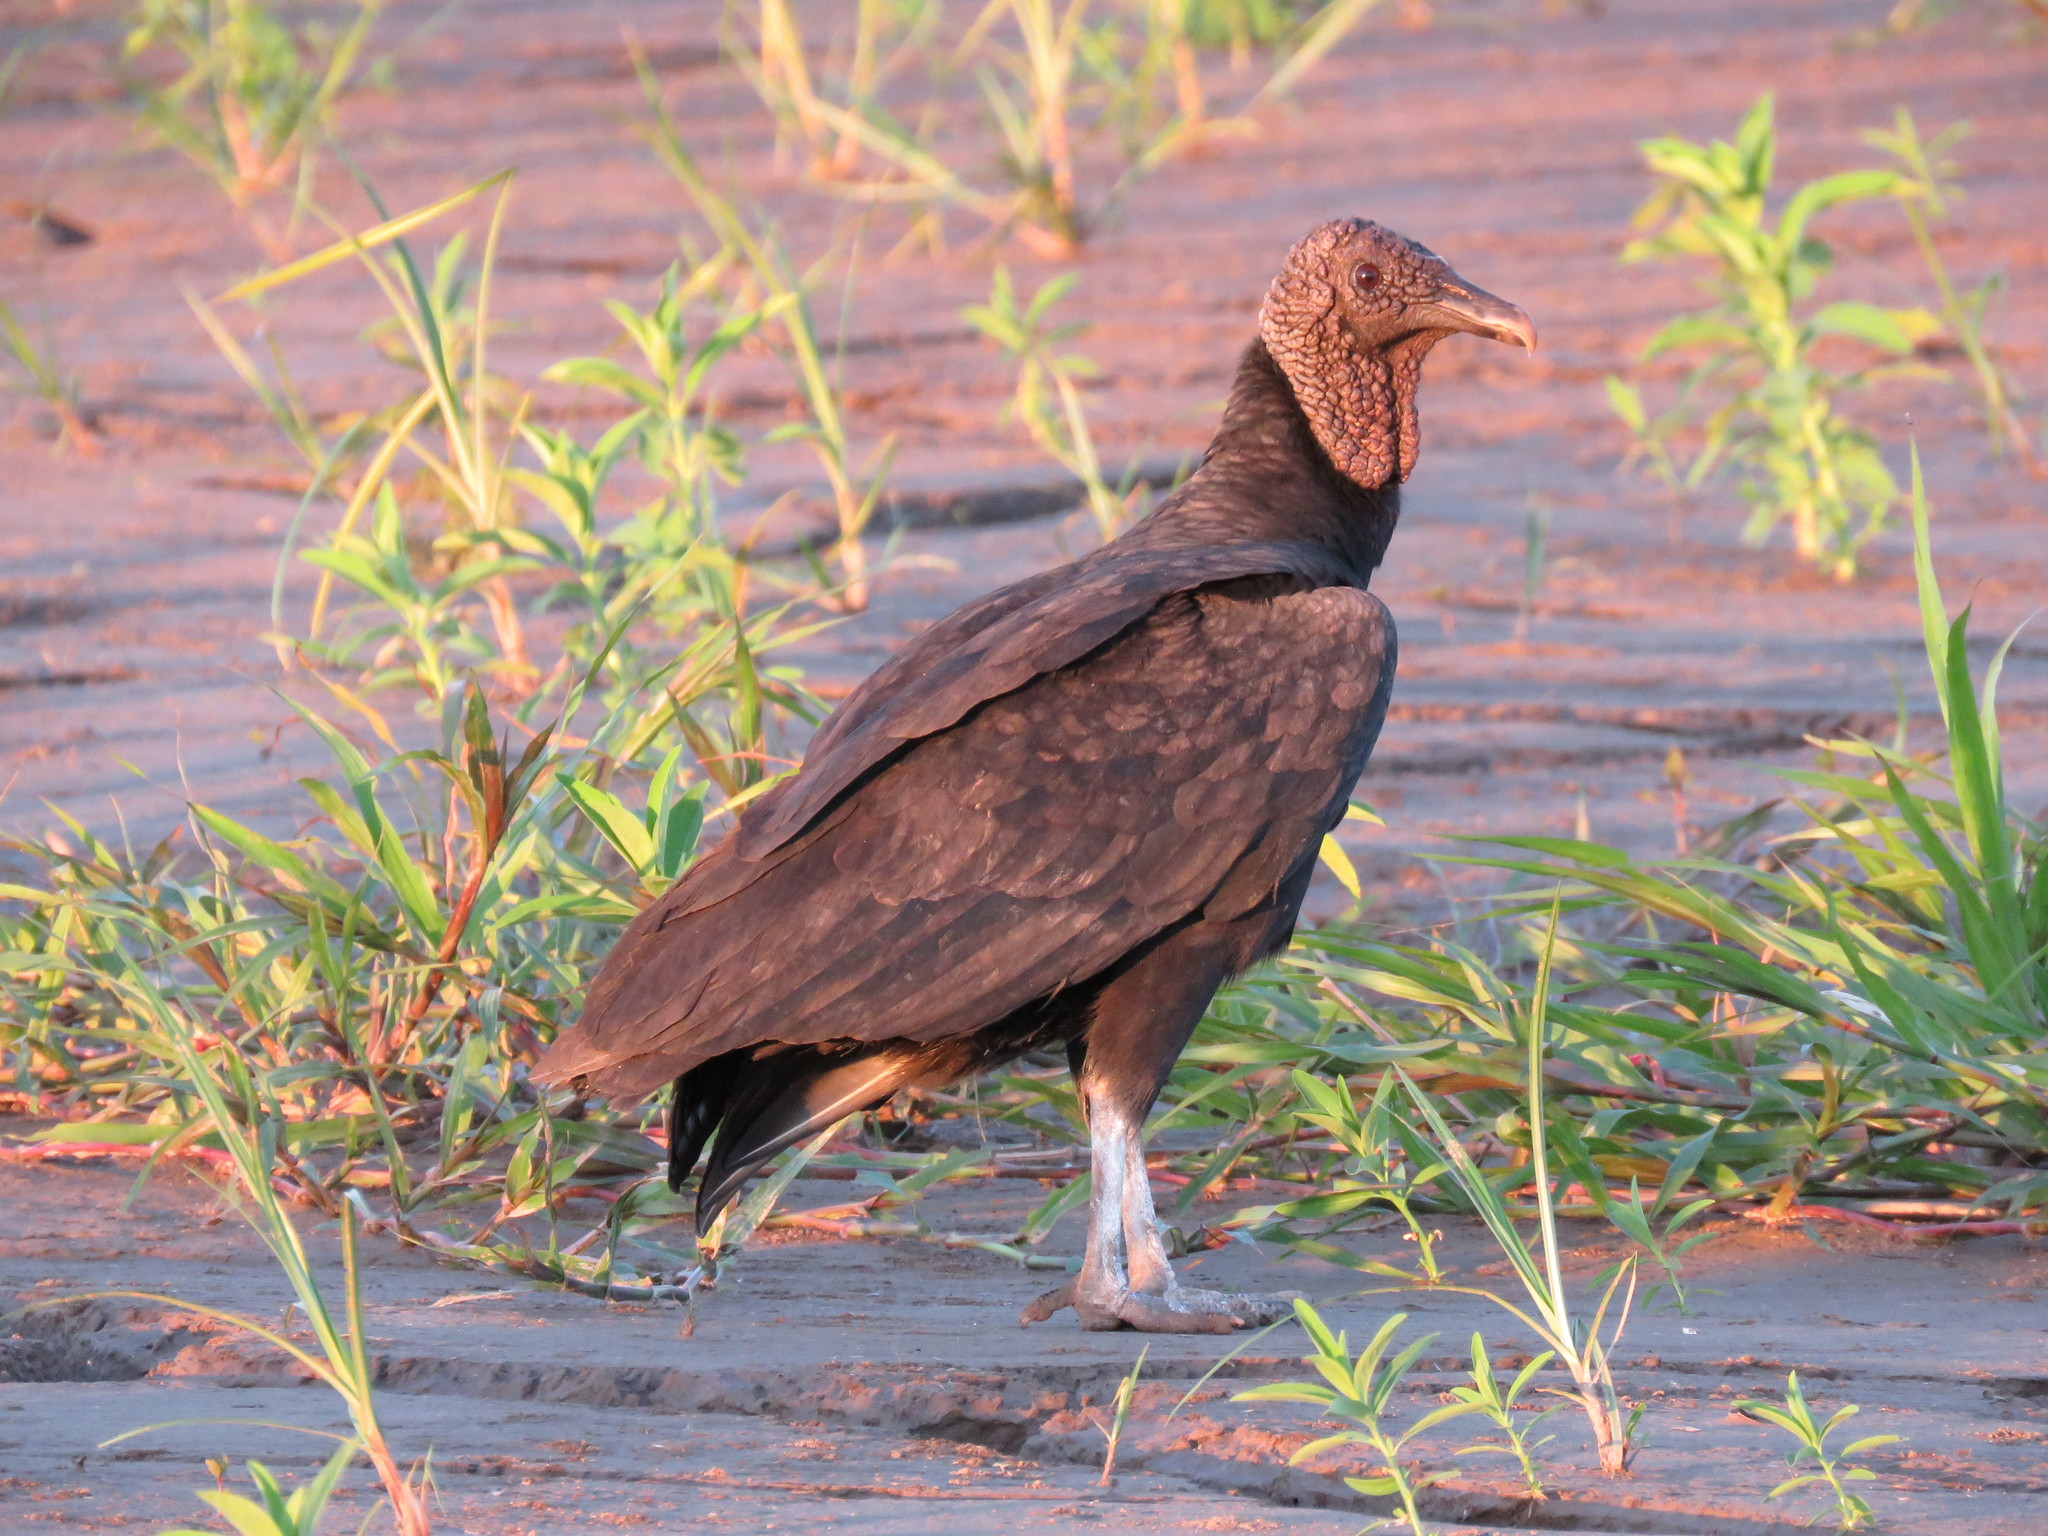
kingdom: Animalia
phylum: Chordata
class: Aves
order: Accipitriformes
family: Cathartidae
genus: Coragyps
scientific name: Coragyps atratus
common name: Black vulture
